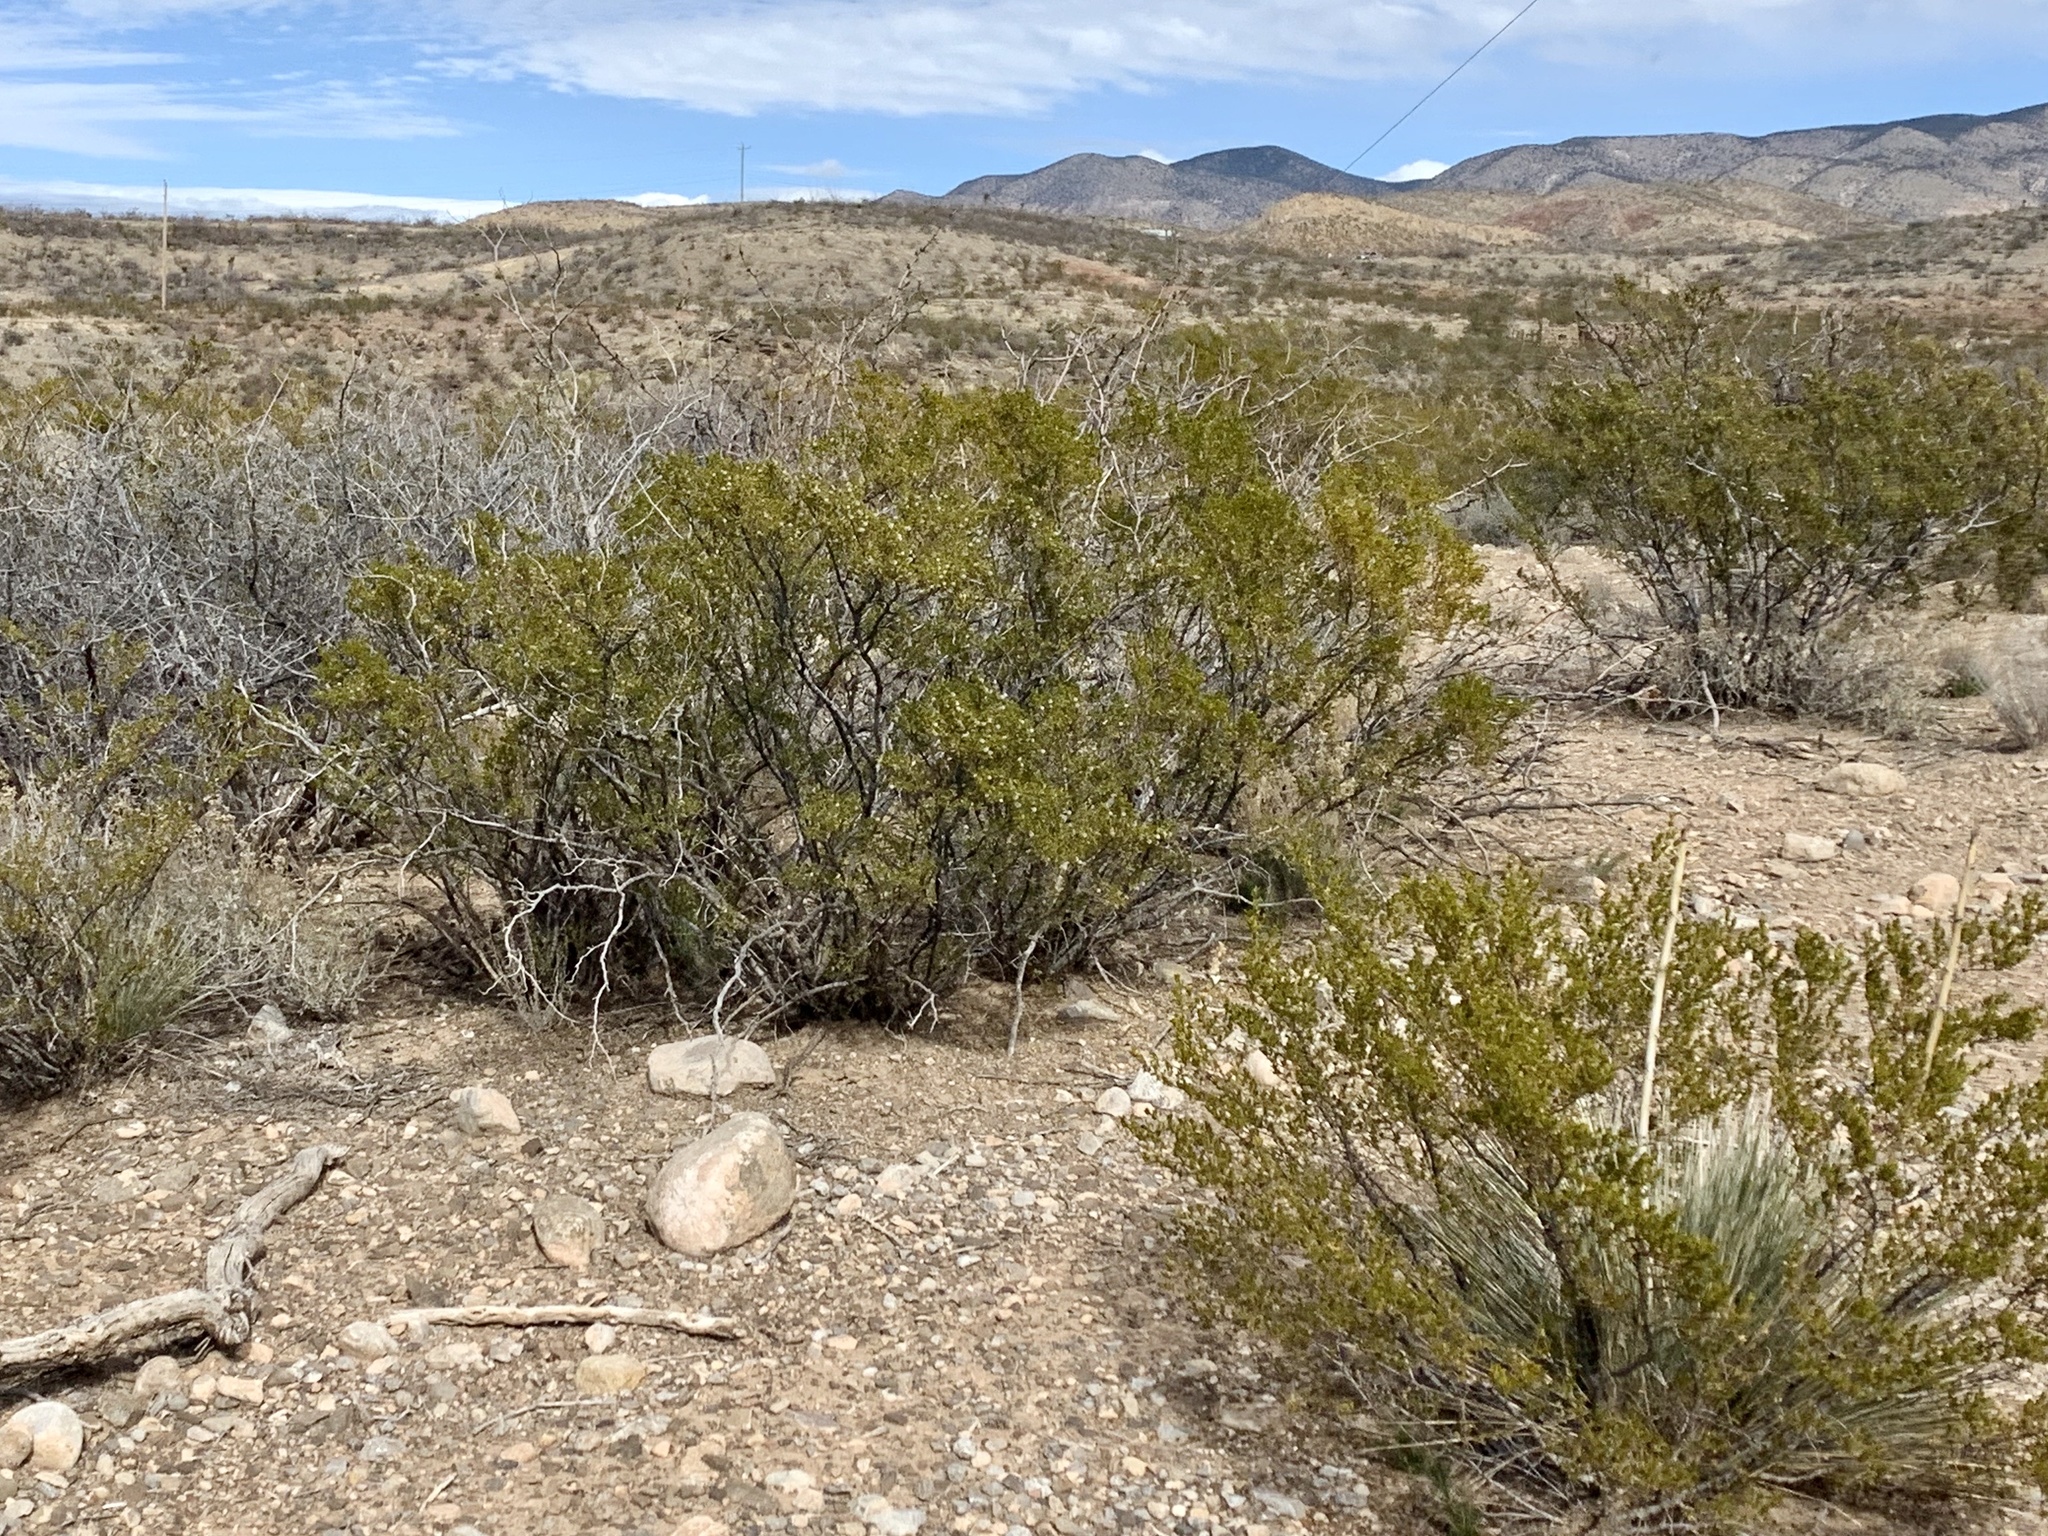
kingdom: Plantae
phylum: Tracheophyta
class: Magnoliopsida
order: Zygophyllales
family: Zygophyllaceae
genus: Larrea
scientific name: Larrea tridentata
